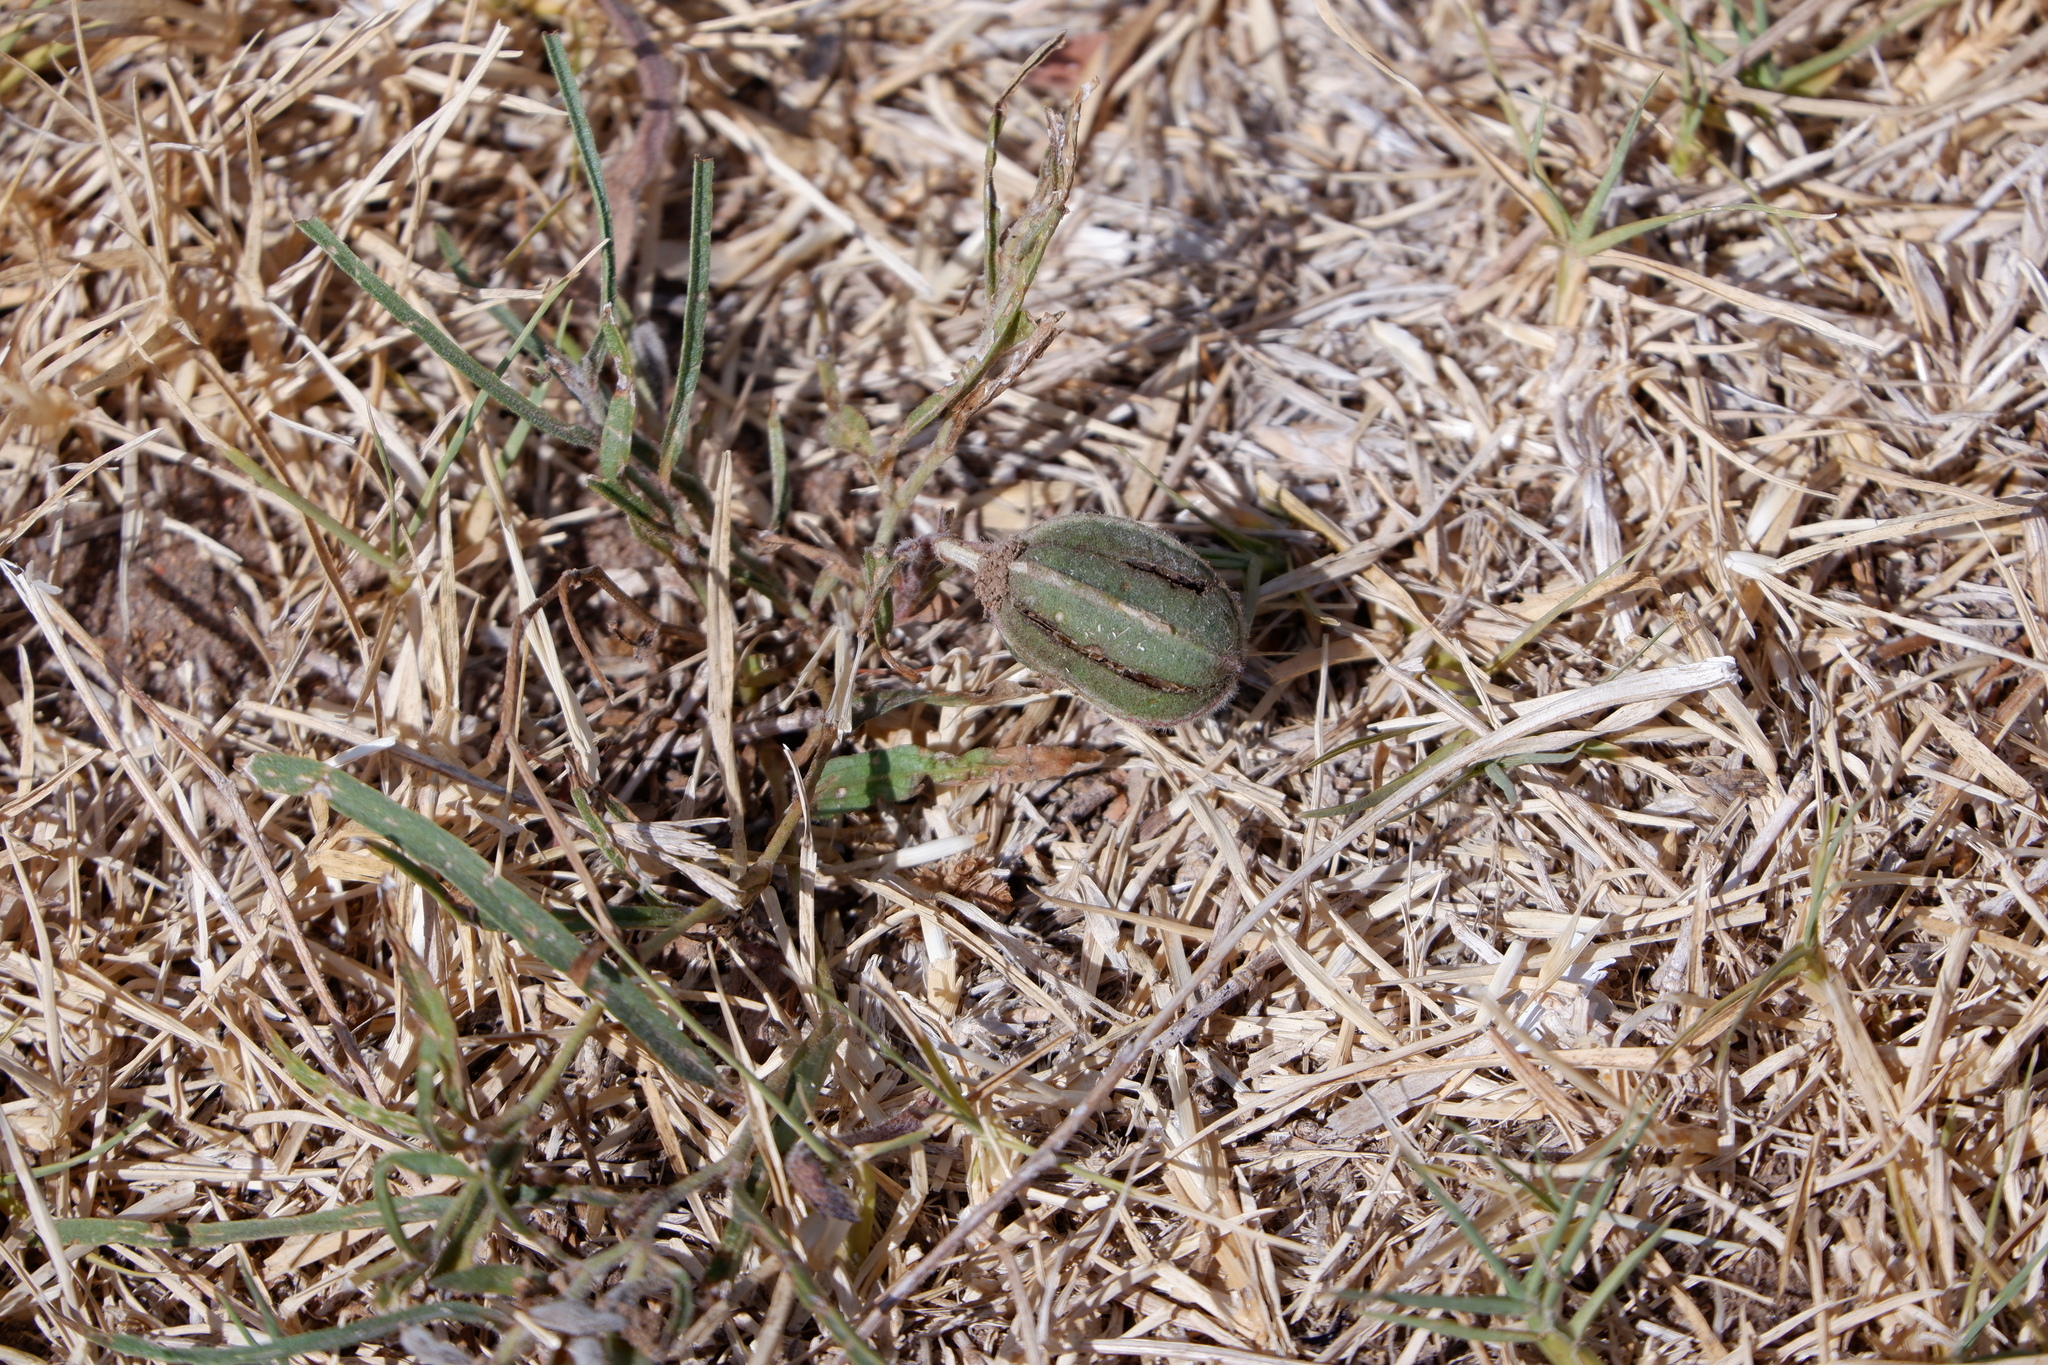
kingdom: Plantae
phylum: Tracheophyta
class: Magnoliopsida
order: Piperales
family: Aristolochiaceae
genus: Aristolochia
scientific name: Aristolochia erecta
